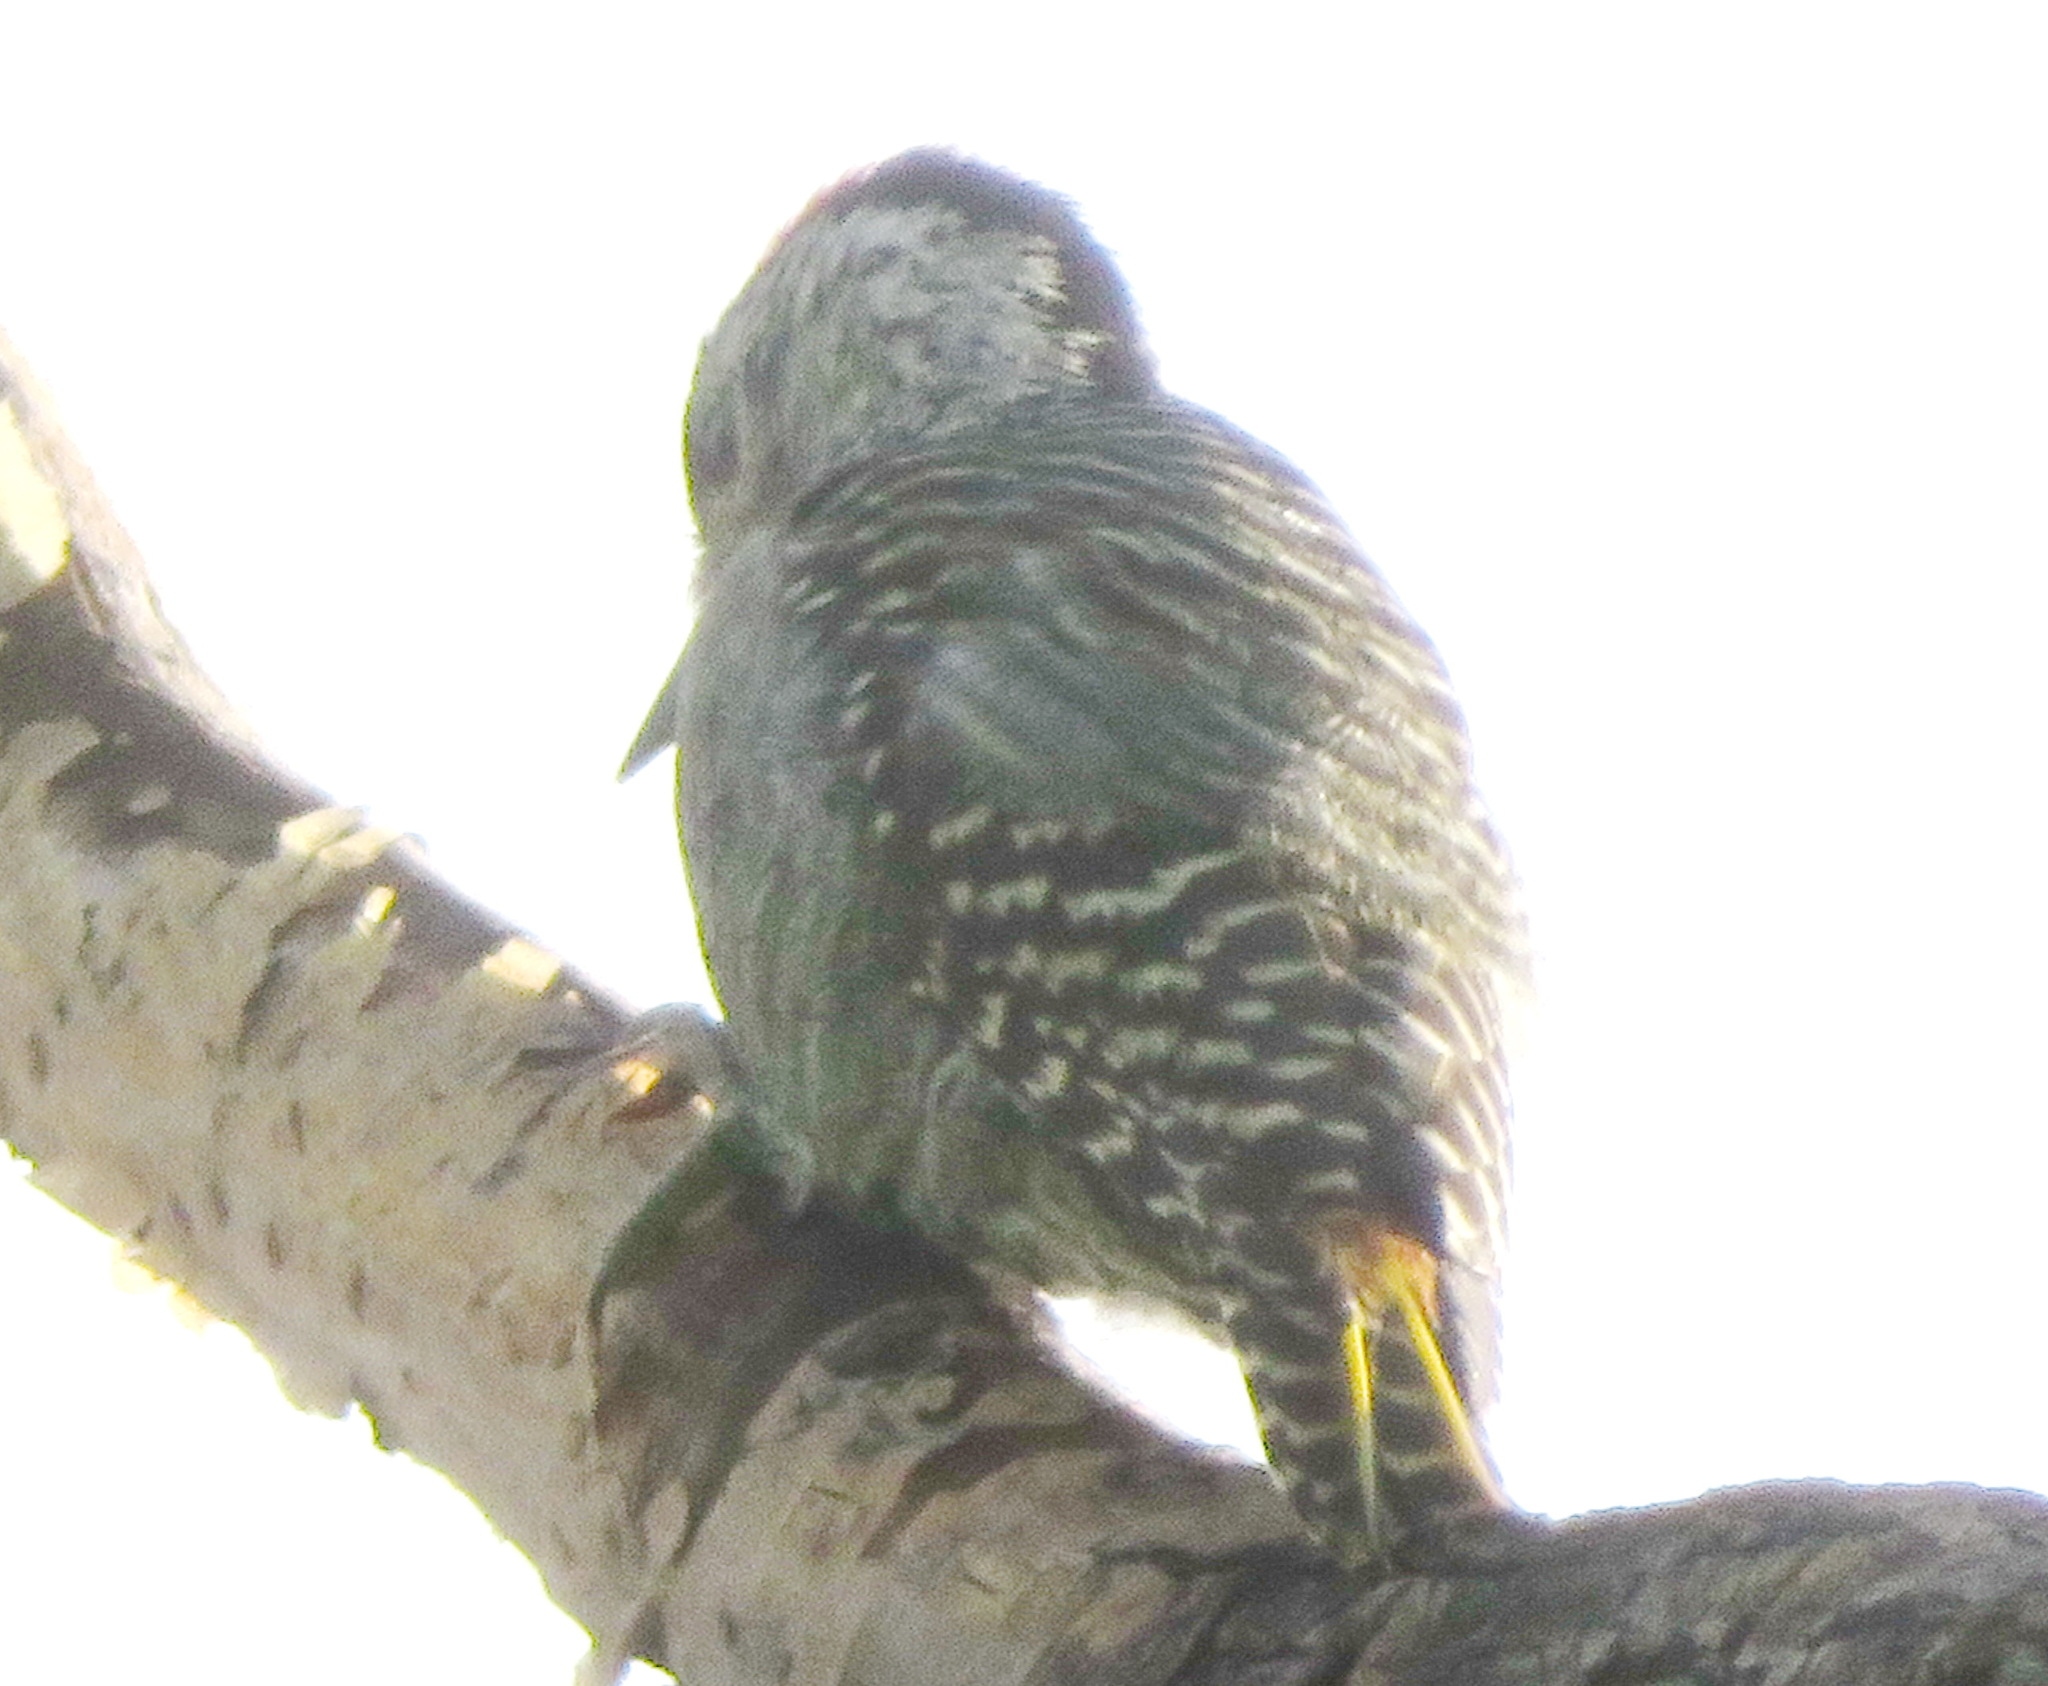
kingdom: Animalia
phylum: Chordata
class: Aves
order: Piciformes
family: Picidae
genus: Dendropicos
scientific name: Dendropicos fuscescens
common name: Cardinal woodpecker
